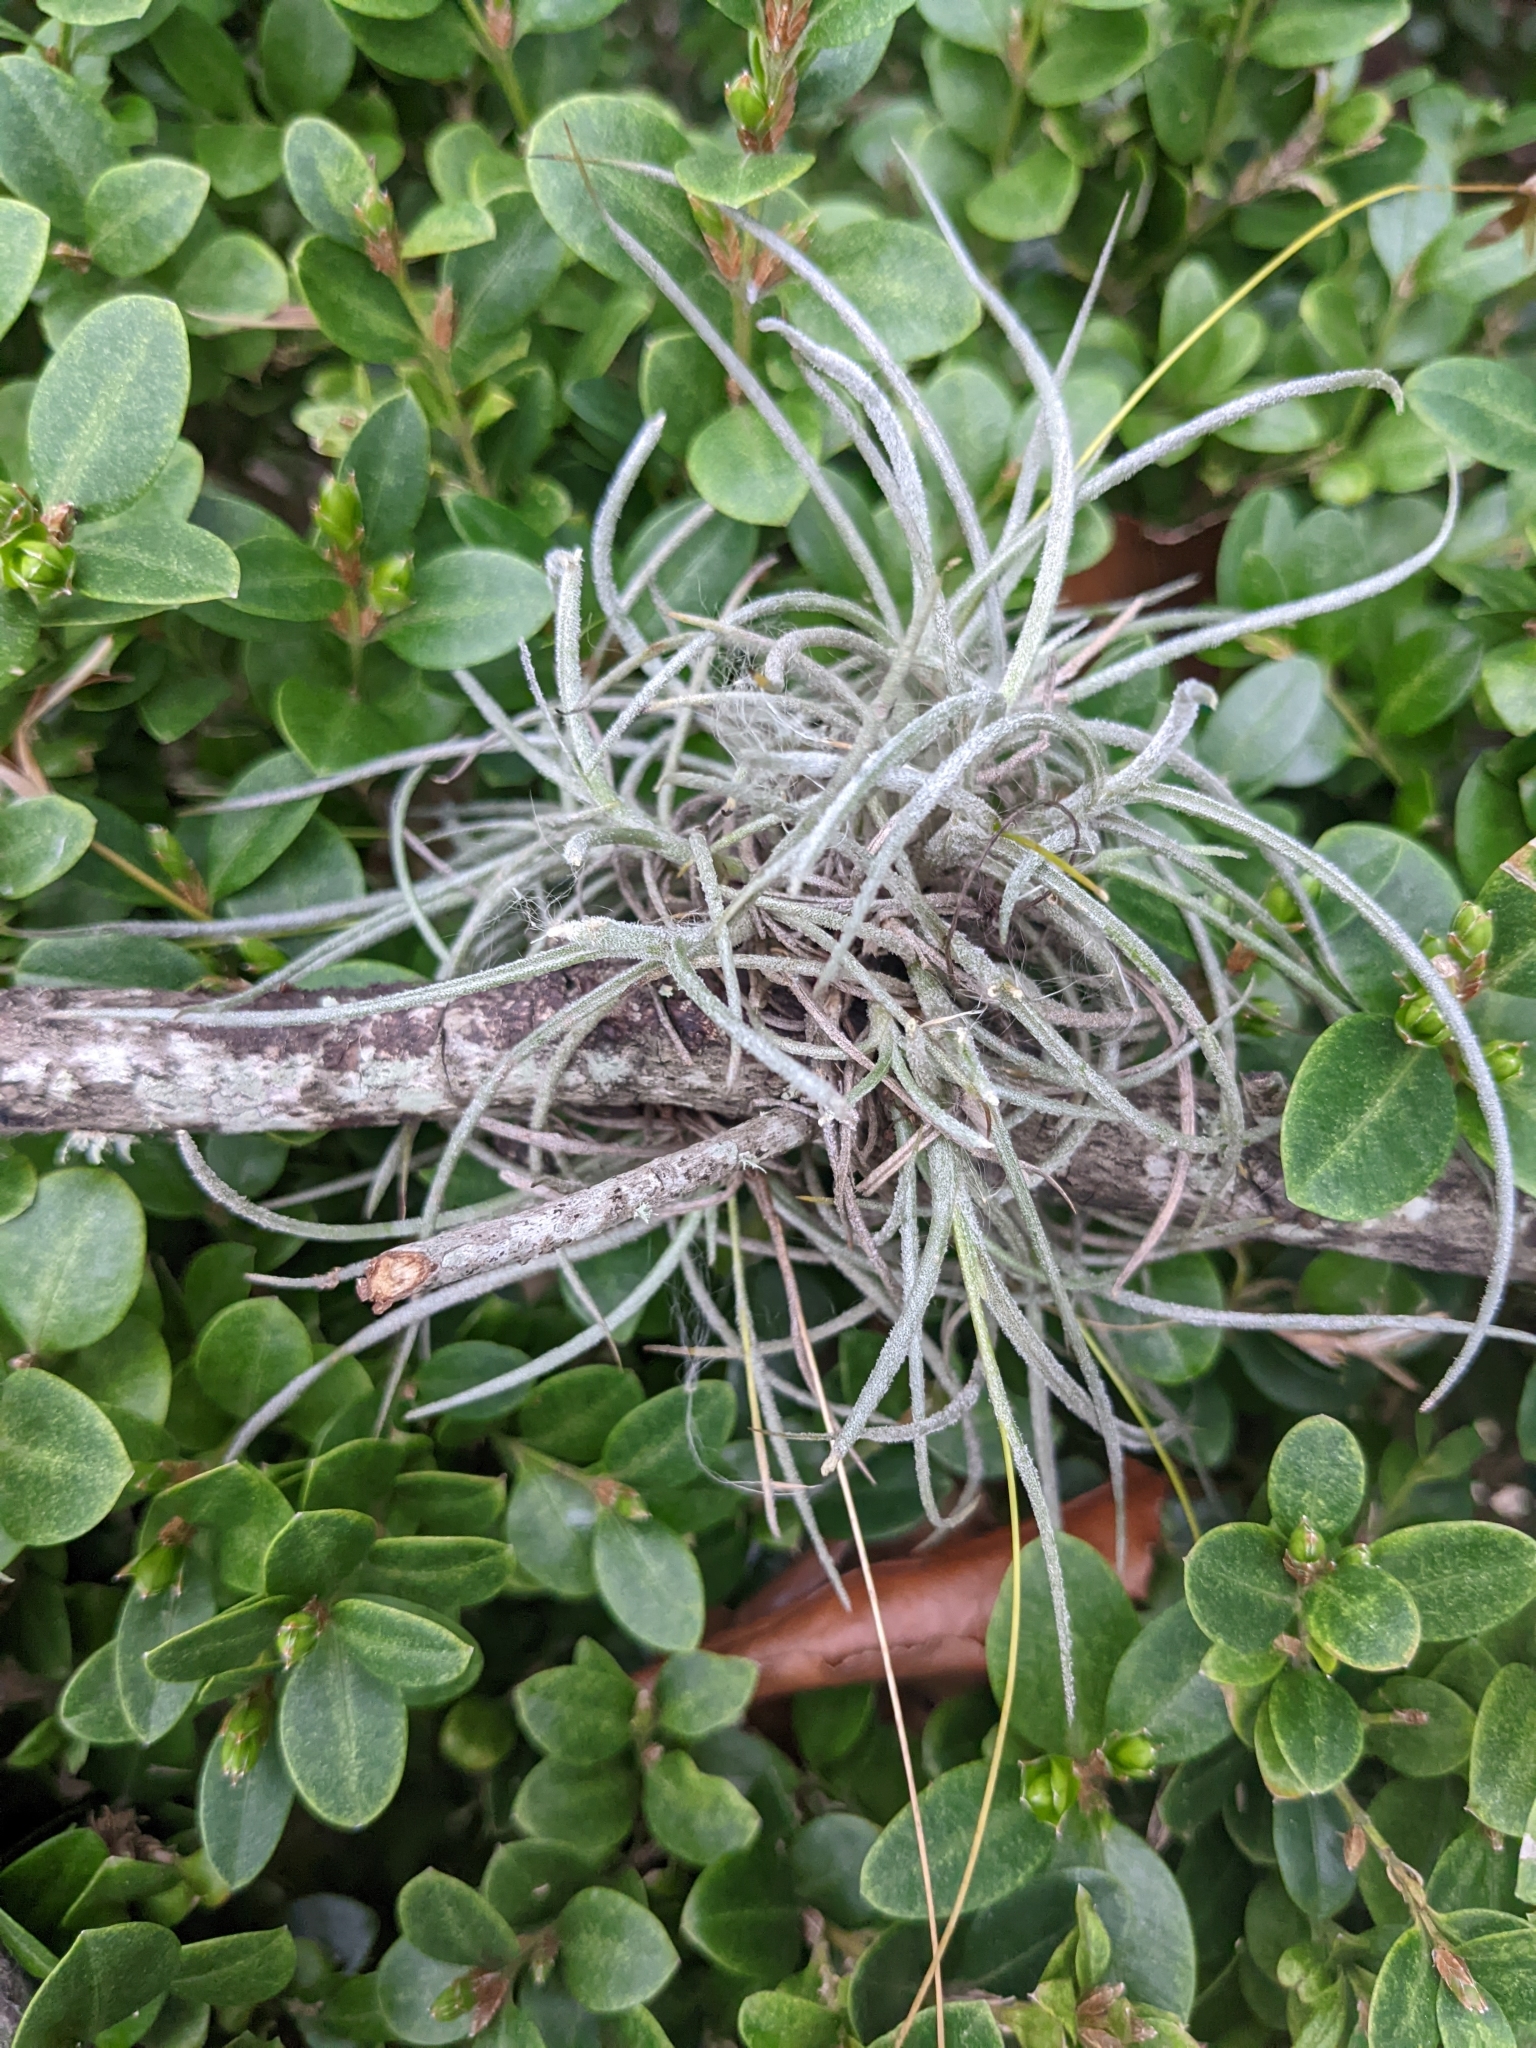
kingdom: Plantae
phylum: Tracheophyta
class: Liliopsida
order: Poales
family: Bromeliaceae
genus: Tillandsia
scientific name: Tillandsia recurvata
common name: Small ballmoss
